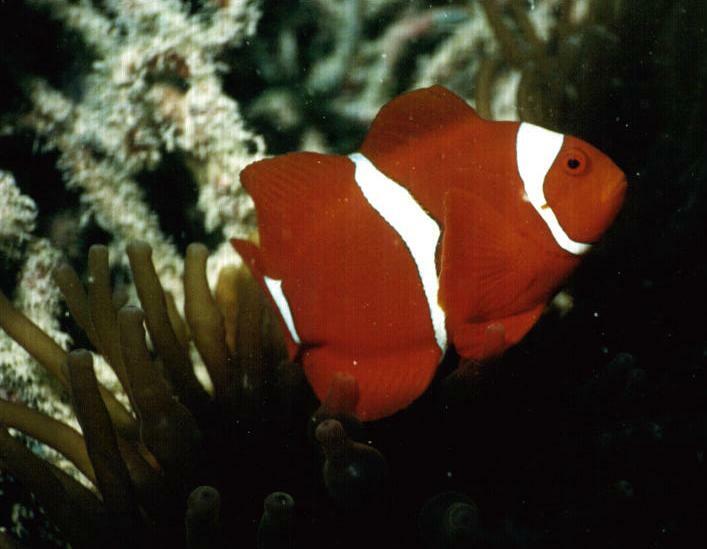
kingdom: Animalia
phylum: Chordata
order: Perciformes
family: Pomacentridae
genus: Premnas
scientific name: Premnas biaculeatus
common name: Spinecheek anemonefish
